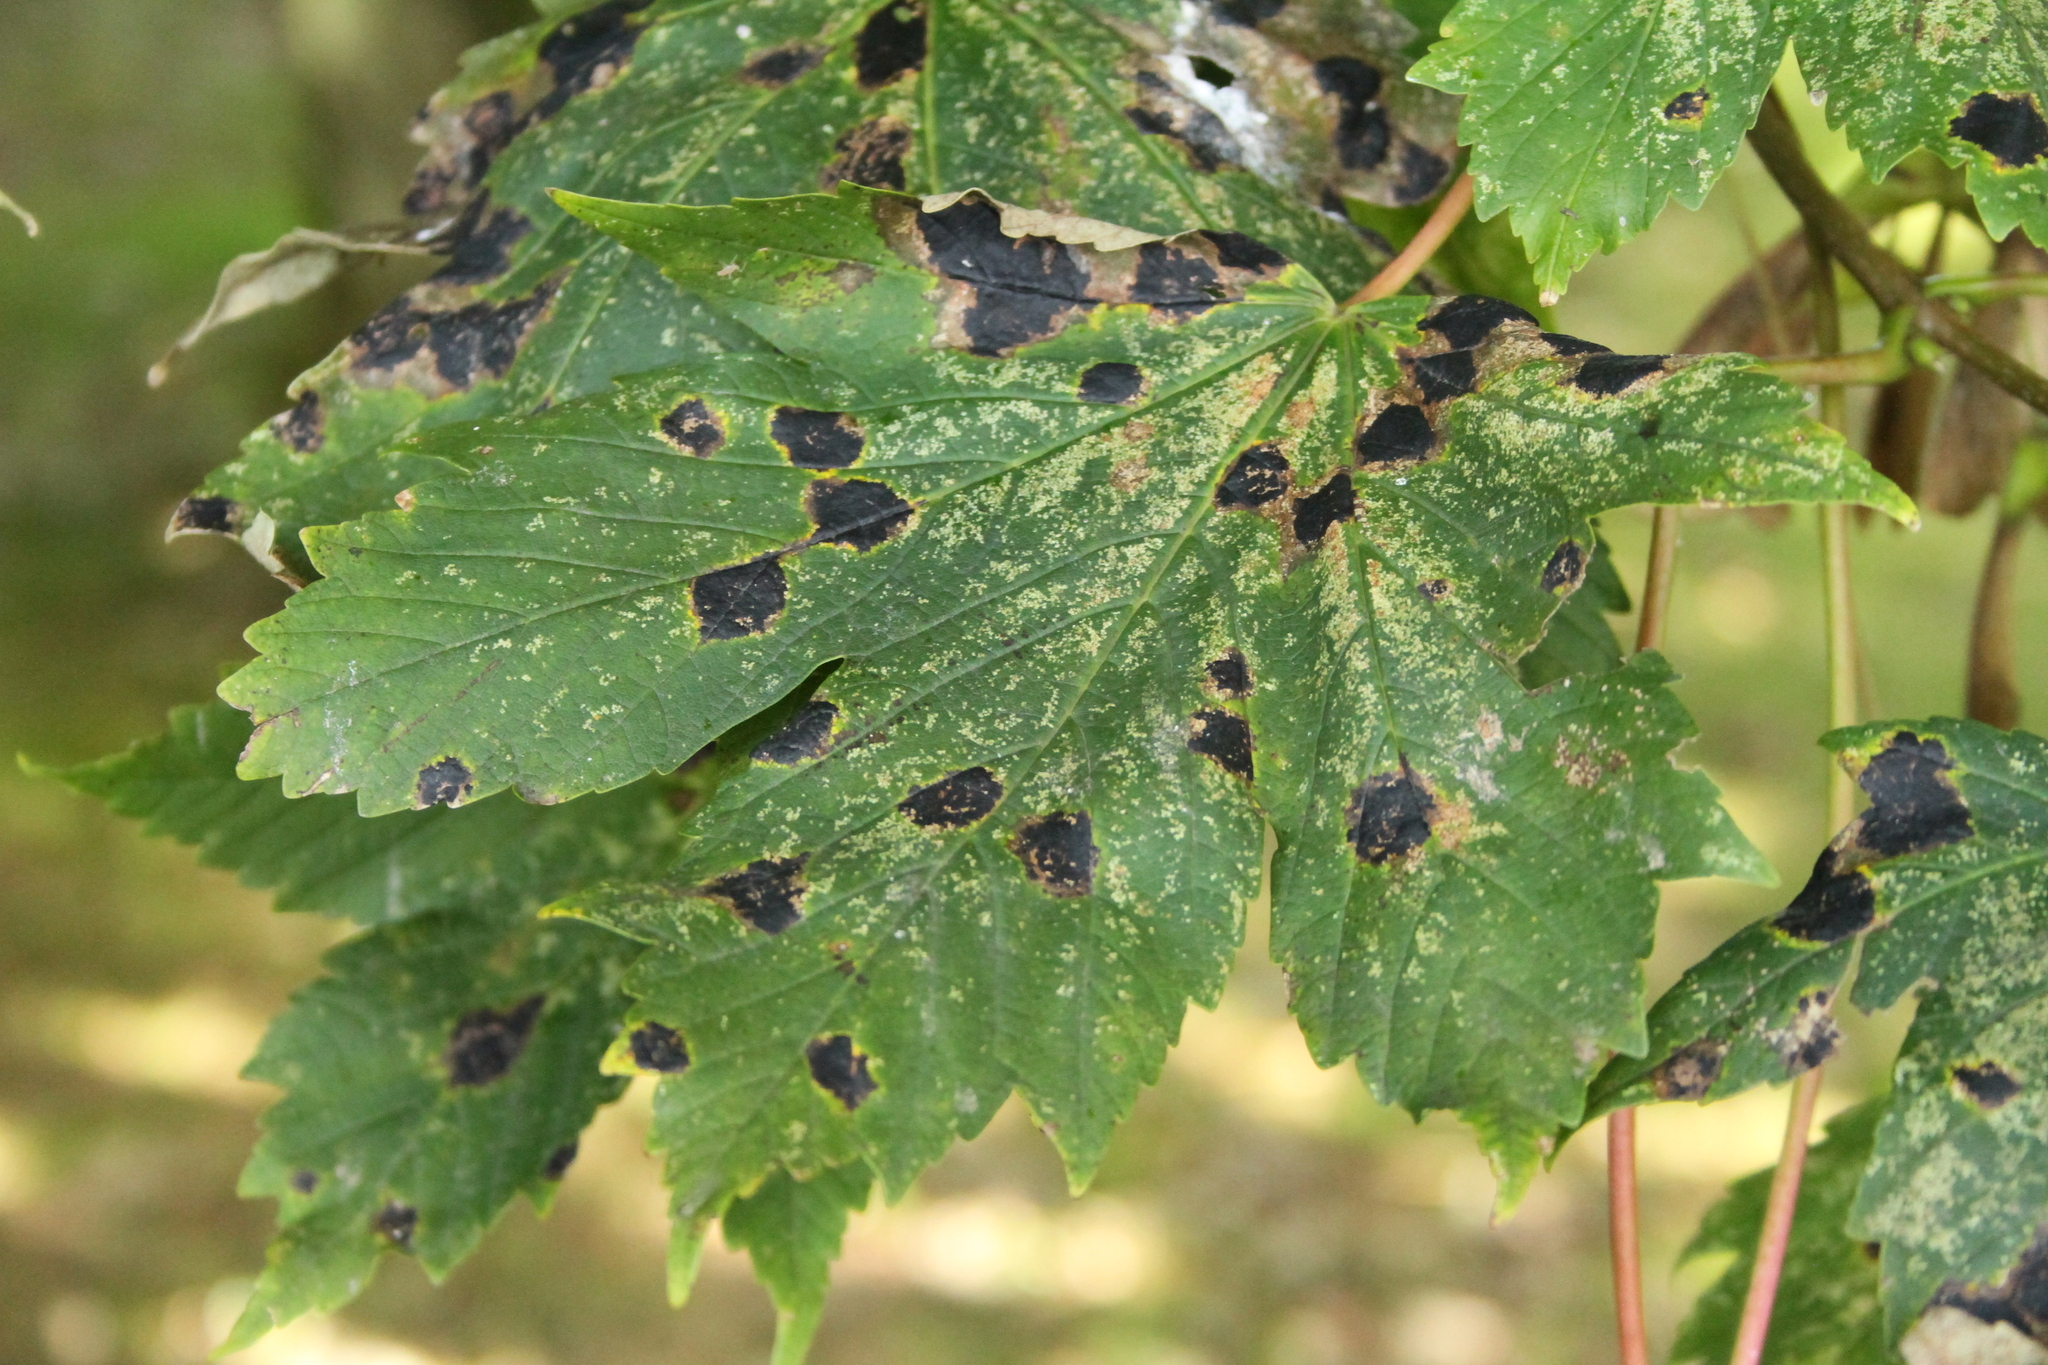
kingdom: Fungi
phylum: Ascomycota
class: Leotiomycetes
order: Rhytismatales
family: Rhytismataceae
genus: Rhytisma
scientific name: Rhytisma acerinum
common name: European tar spot
